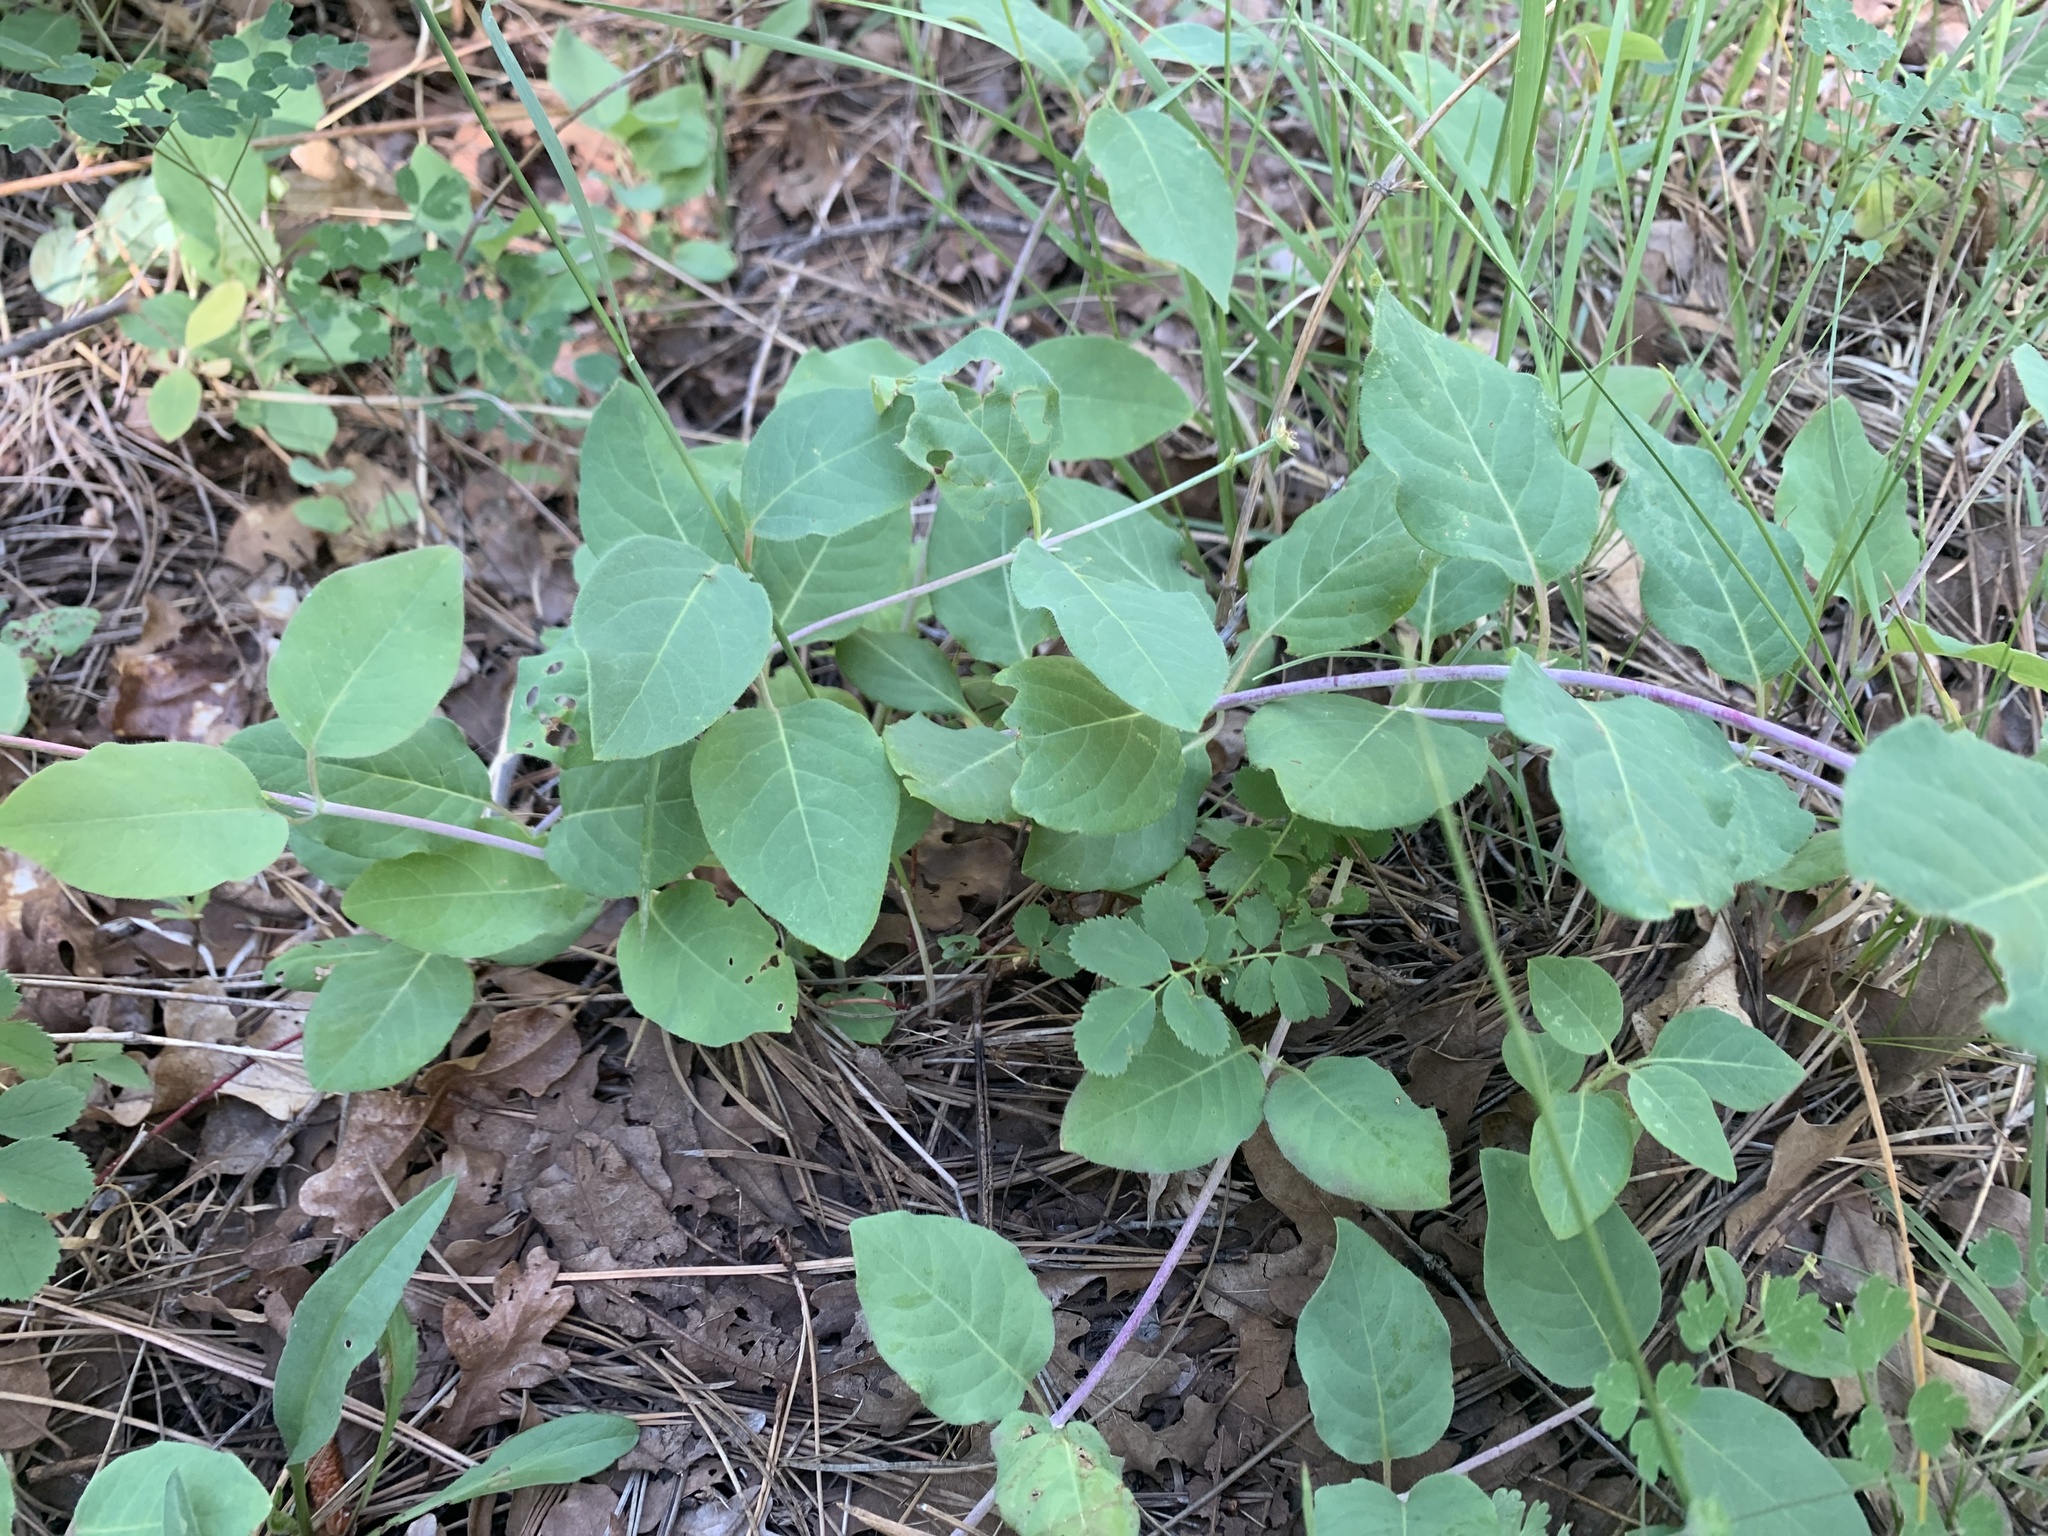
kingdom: Plantae
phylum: Tracheophyta
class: Magnoliopsida
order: Dipsacales
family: Caprifoliaceae
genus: Lonicera
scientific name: Lonicera arizonica
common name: Arizona honeysuckle
